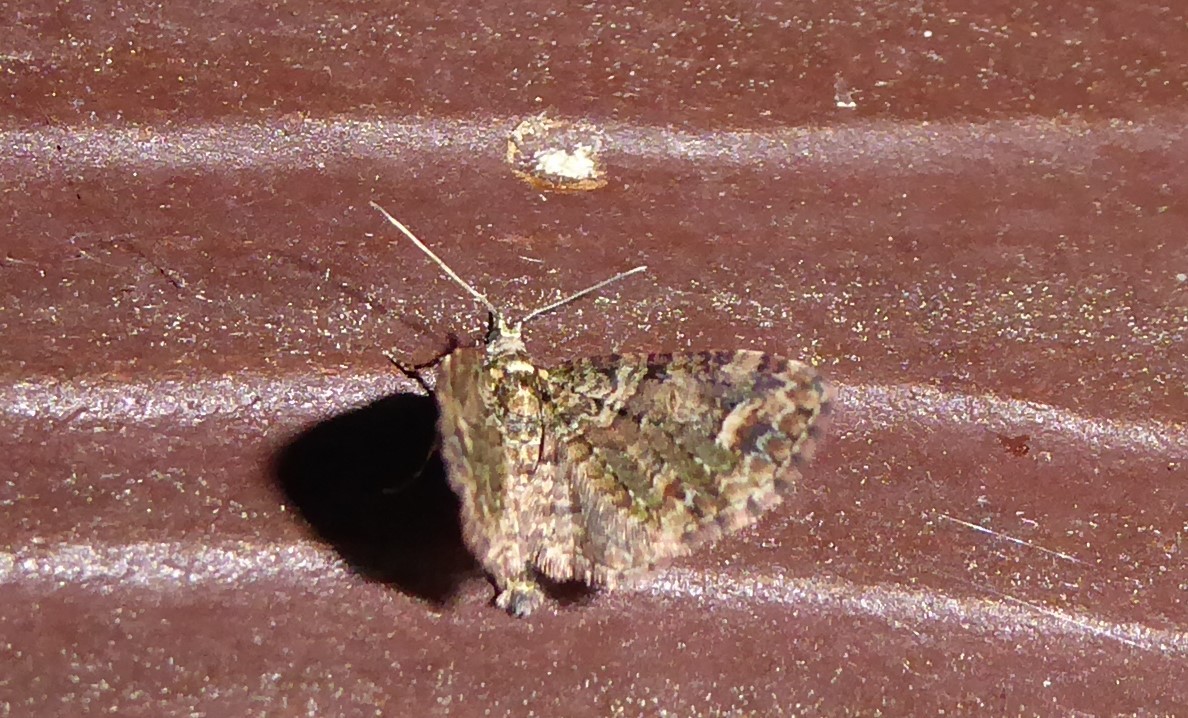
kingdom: Animalia
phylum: Arthropoda
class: Insecta
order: Lepidoptera
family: Geometridae
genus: Idaea
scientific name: Idaea mutanda
